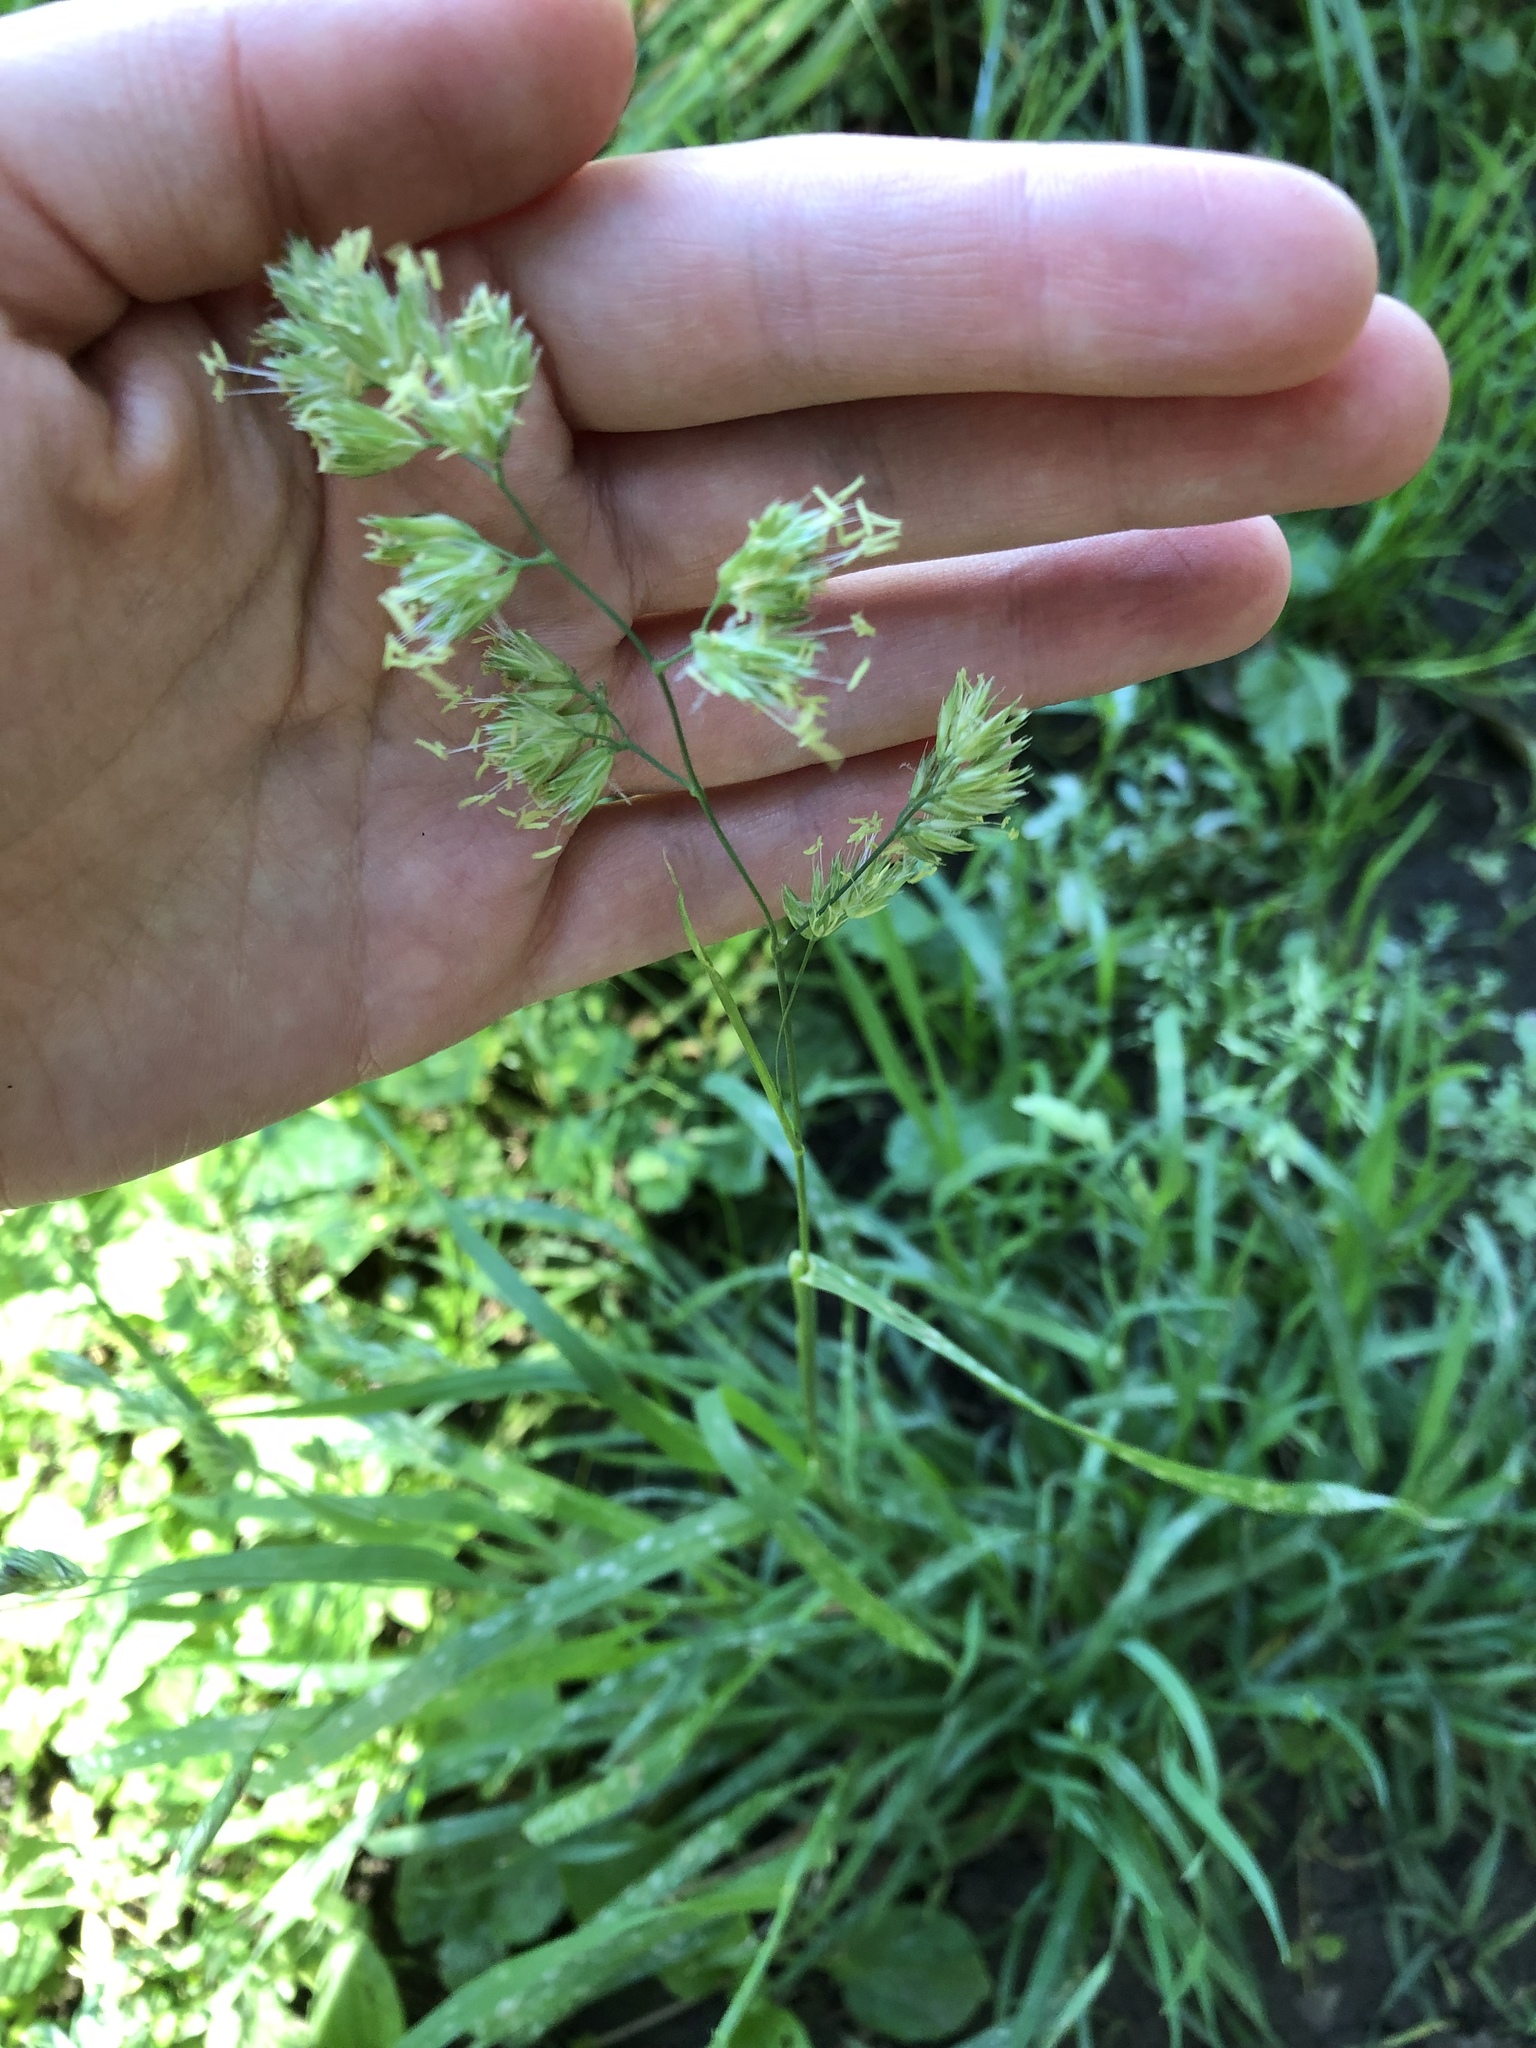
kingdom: Plantae
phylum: Tracheophyta
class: Liliopsida
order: Poales
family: Poaceae
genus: Dactylis
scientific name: Dactylis glomerata
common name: Orchardgrass
